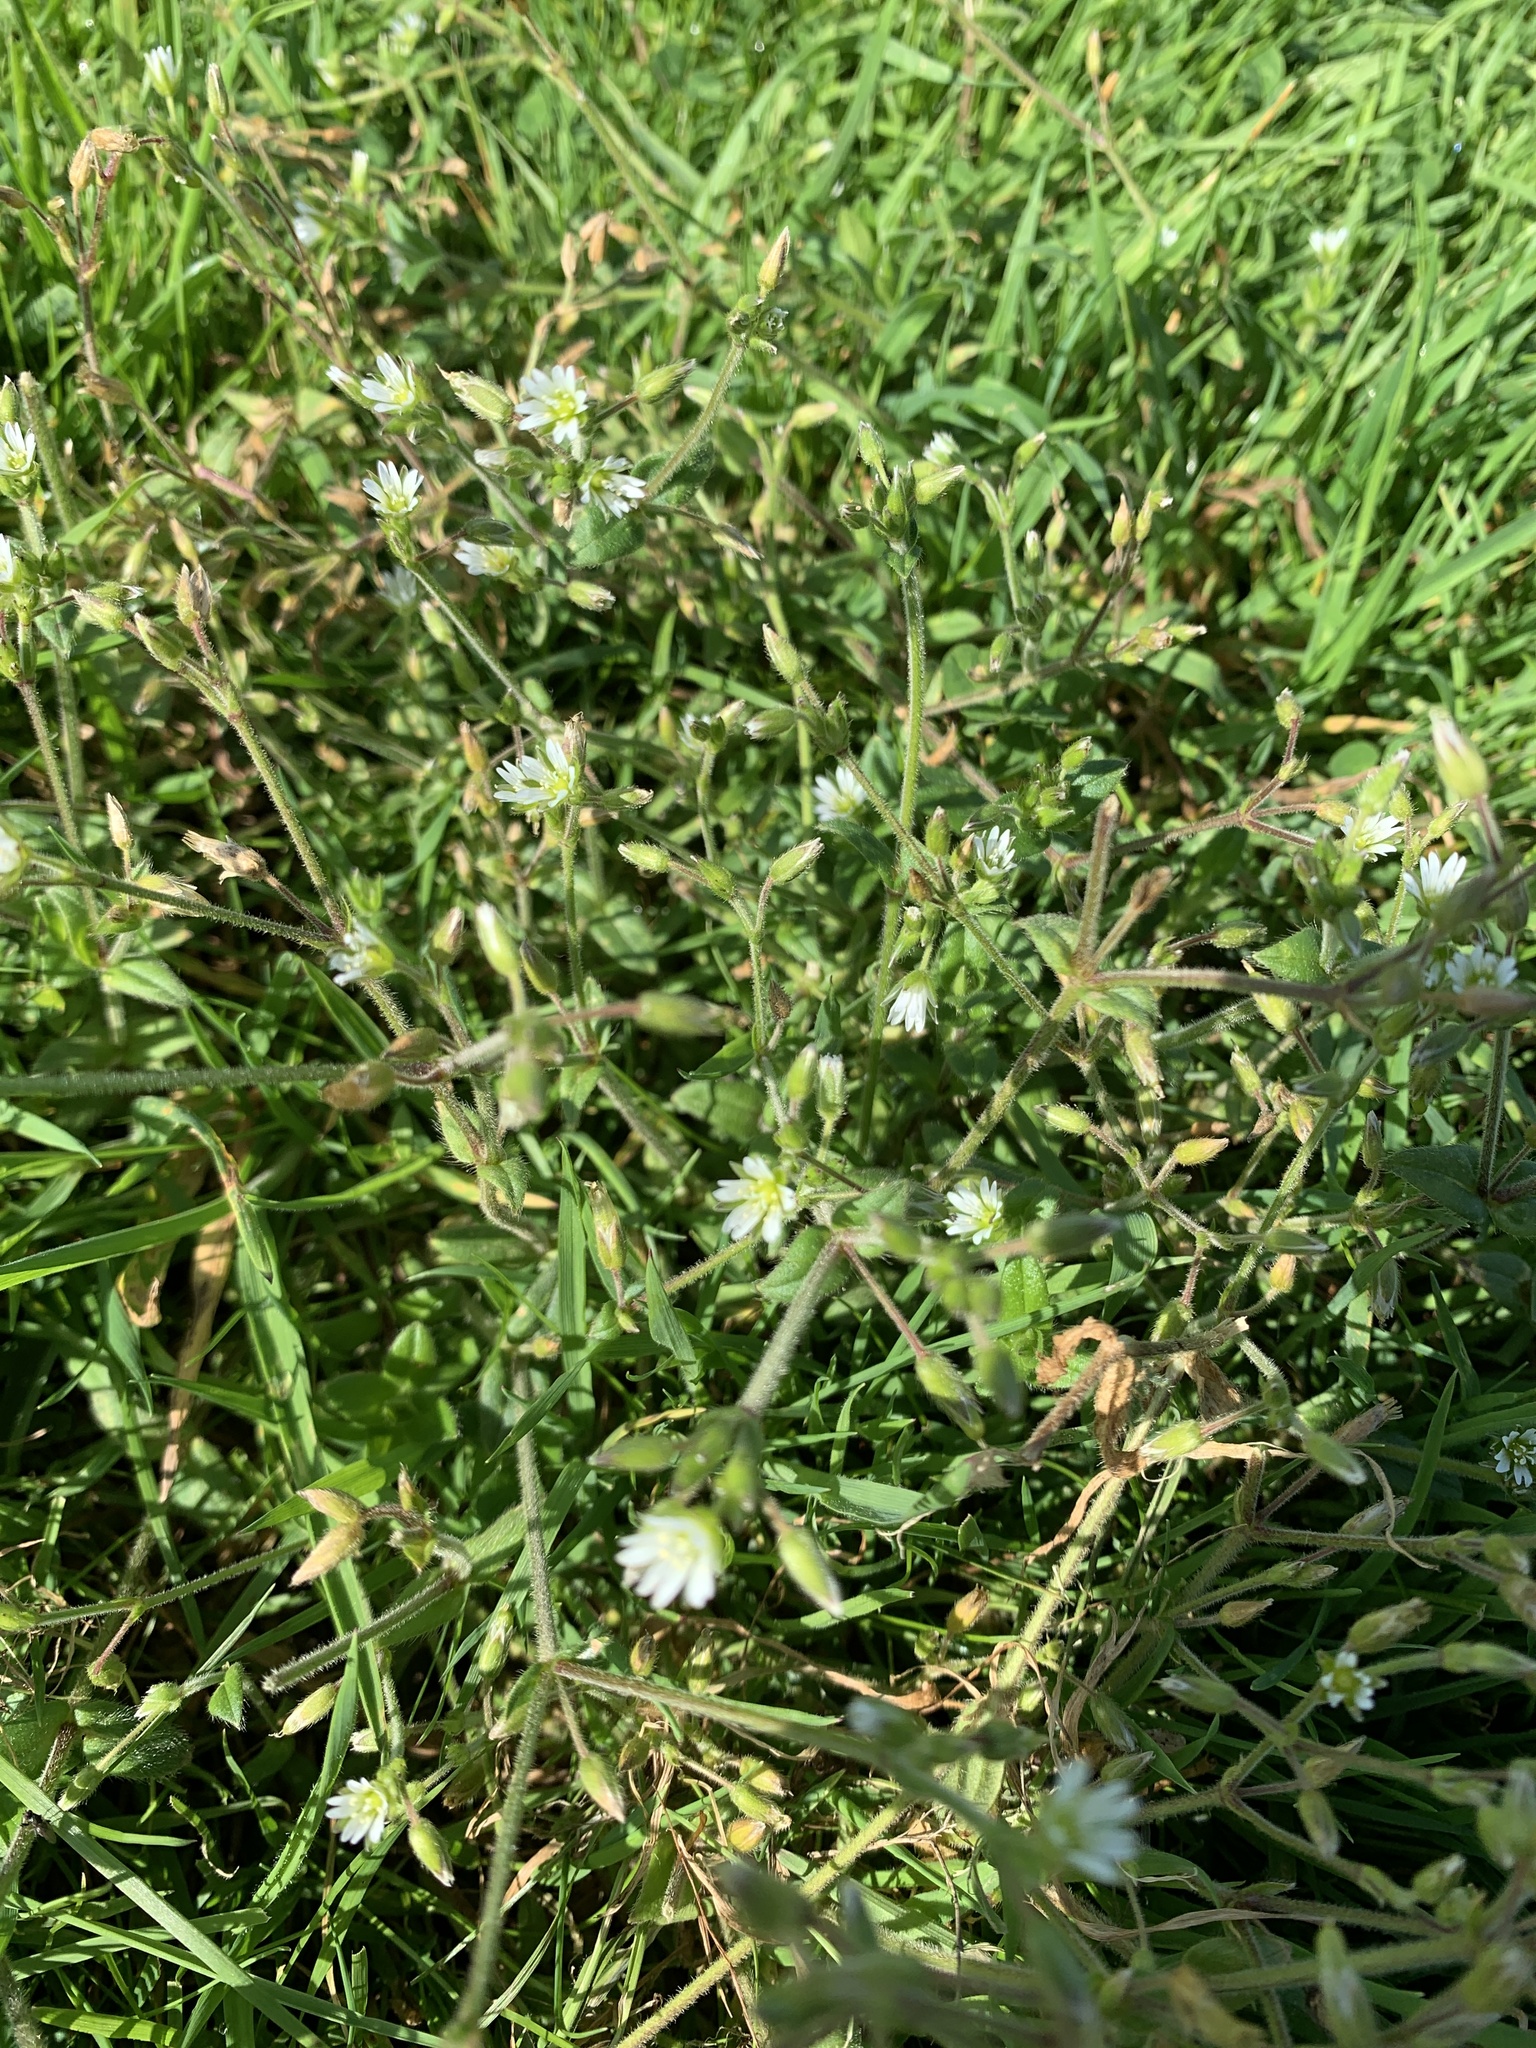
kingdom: Plantae
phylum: Tracheophyta
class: Magnoliopsida
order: Caryophyllales
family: Caryophyllaceae
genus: Cerastium
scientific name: Cerastium fontanum
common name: Common mouse-ear
